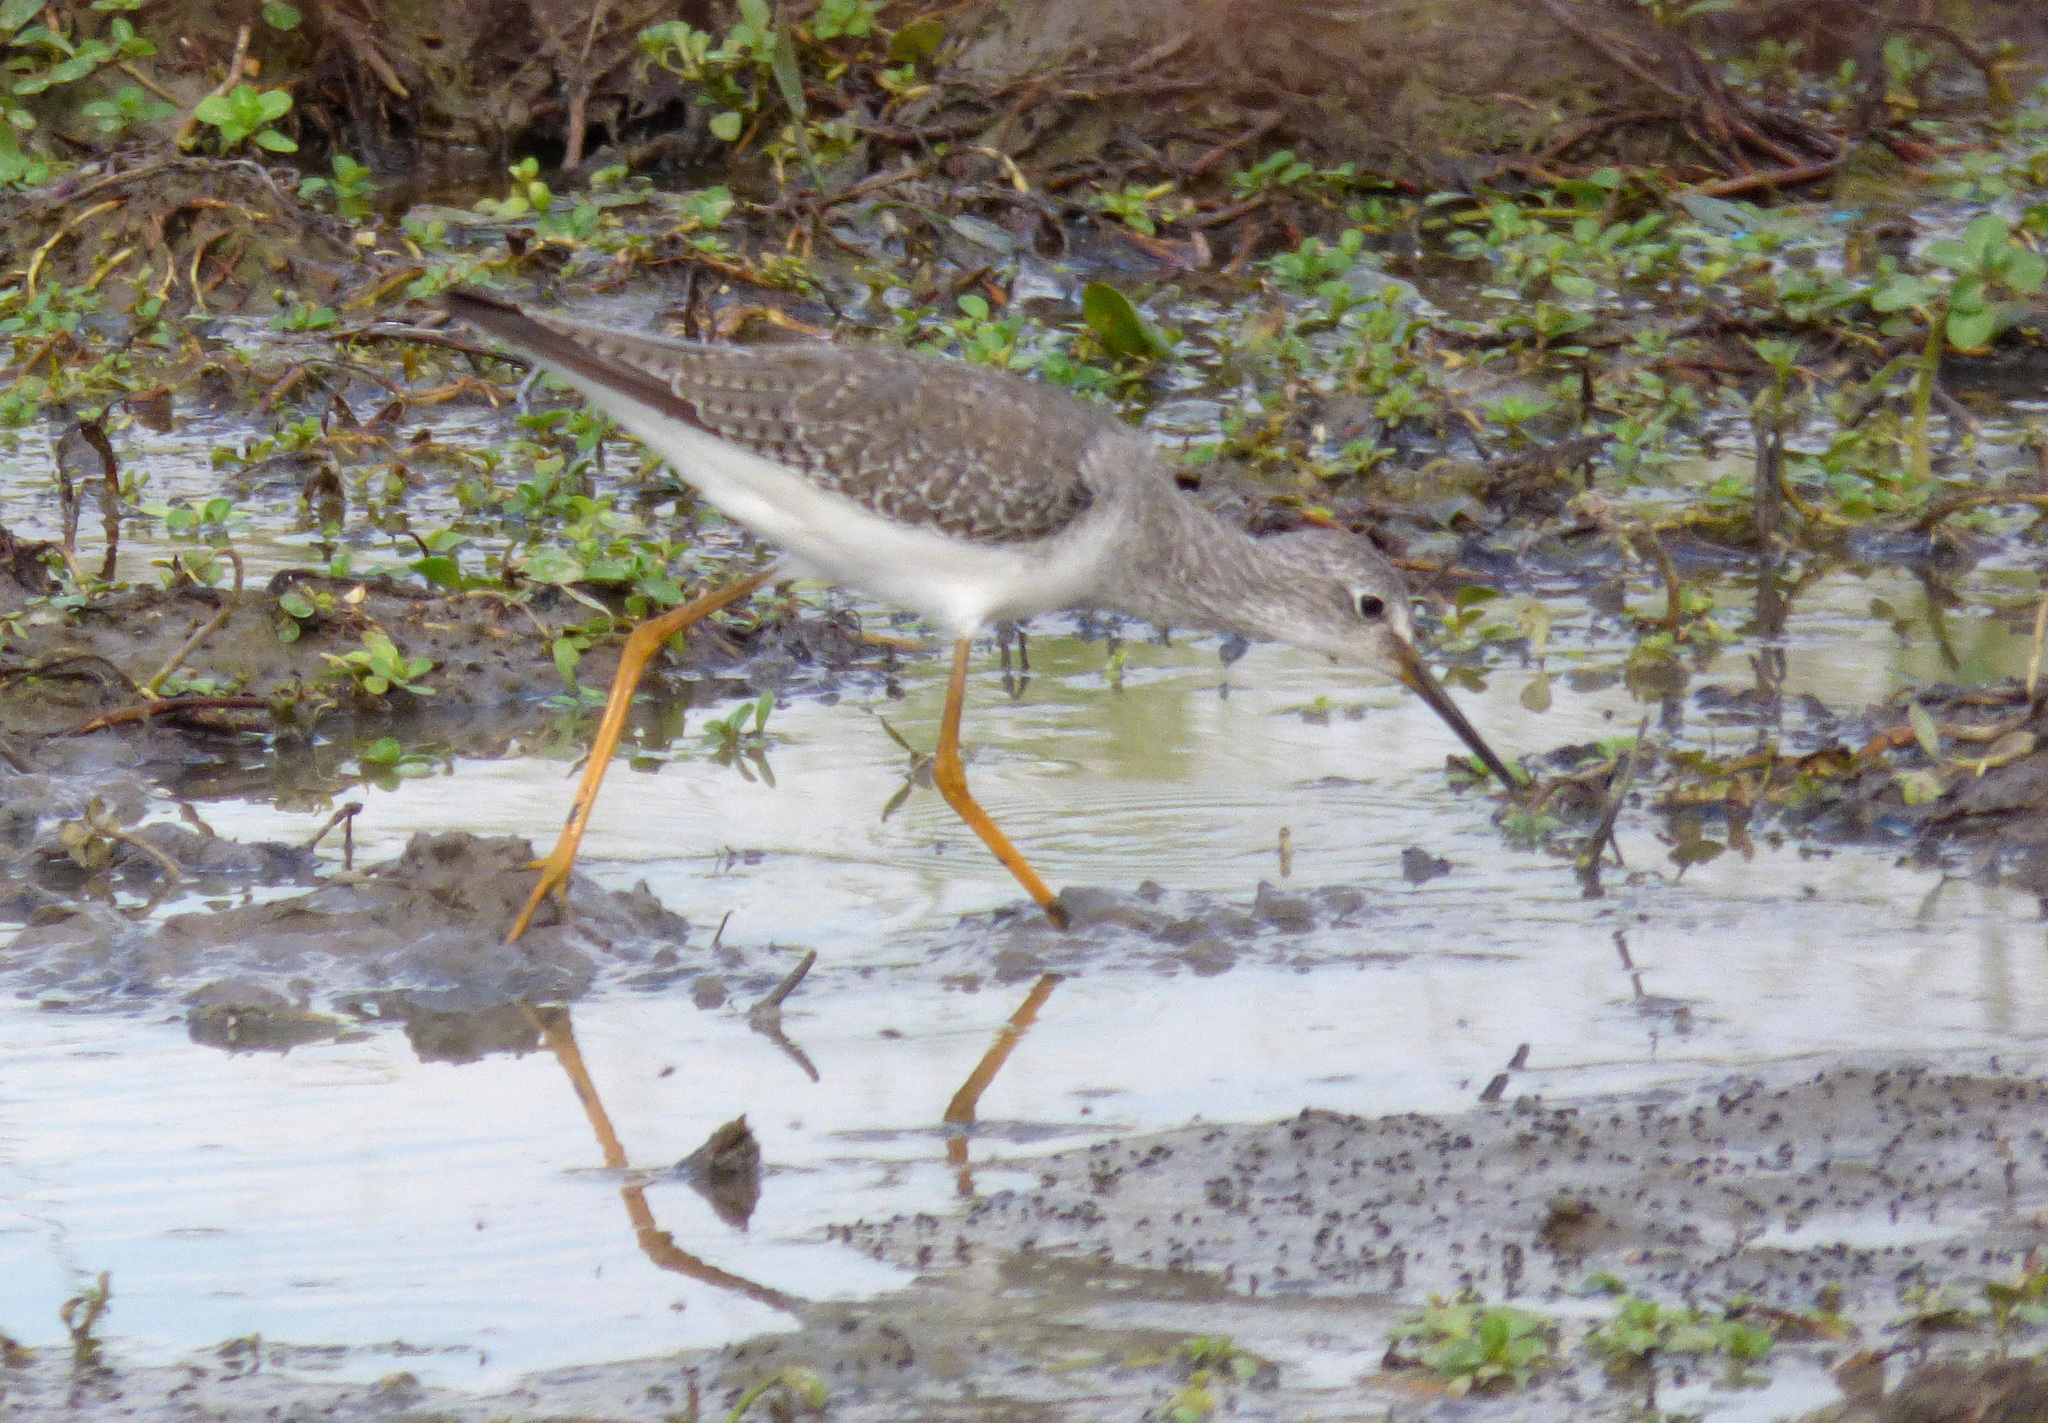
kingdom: Animalia
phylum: Chordata
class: Aves
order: Charadriiformes
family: Scolopacidae
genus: Tringa
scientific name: Tringa flavipes
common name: Lesser yellowlegs
